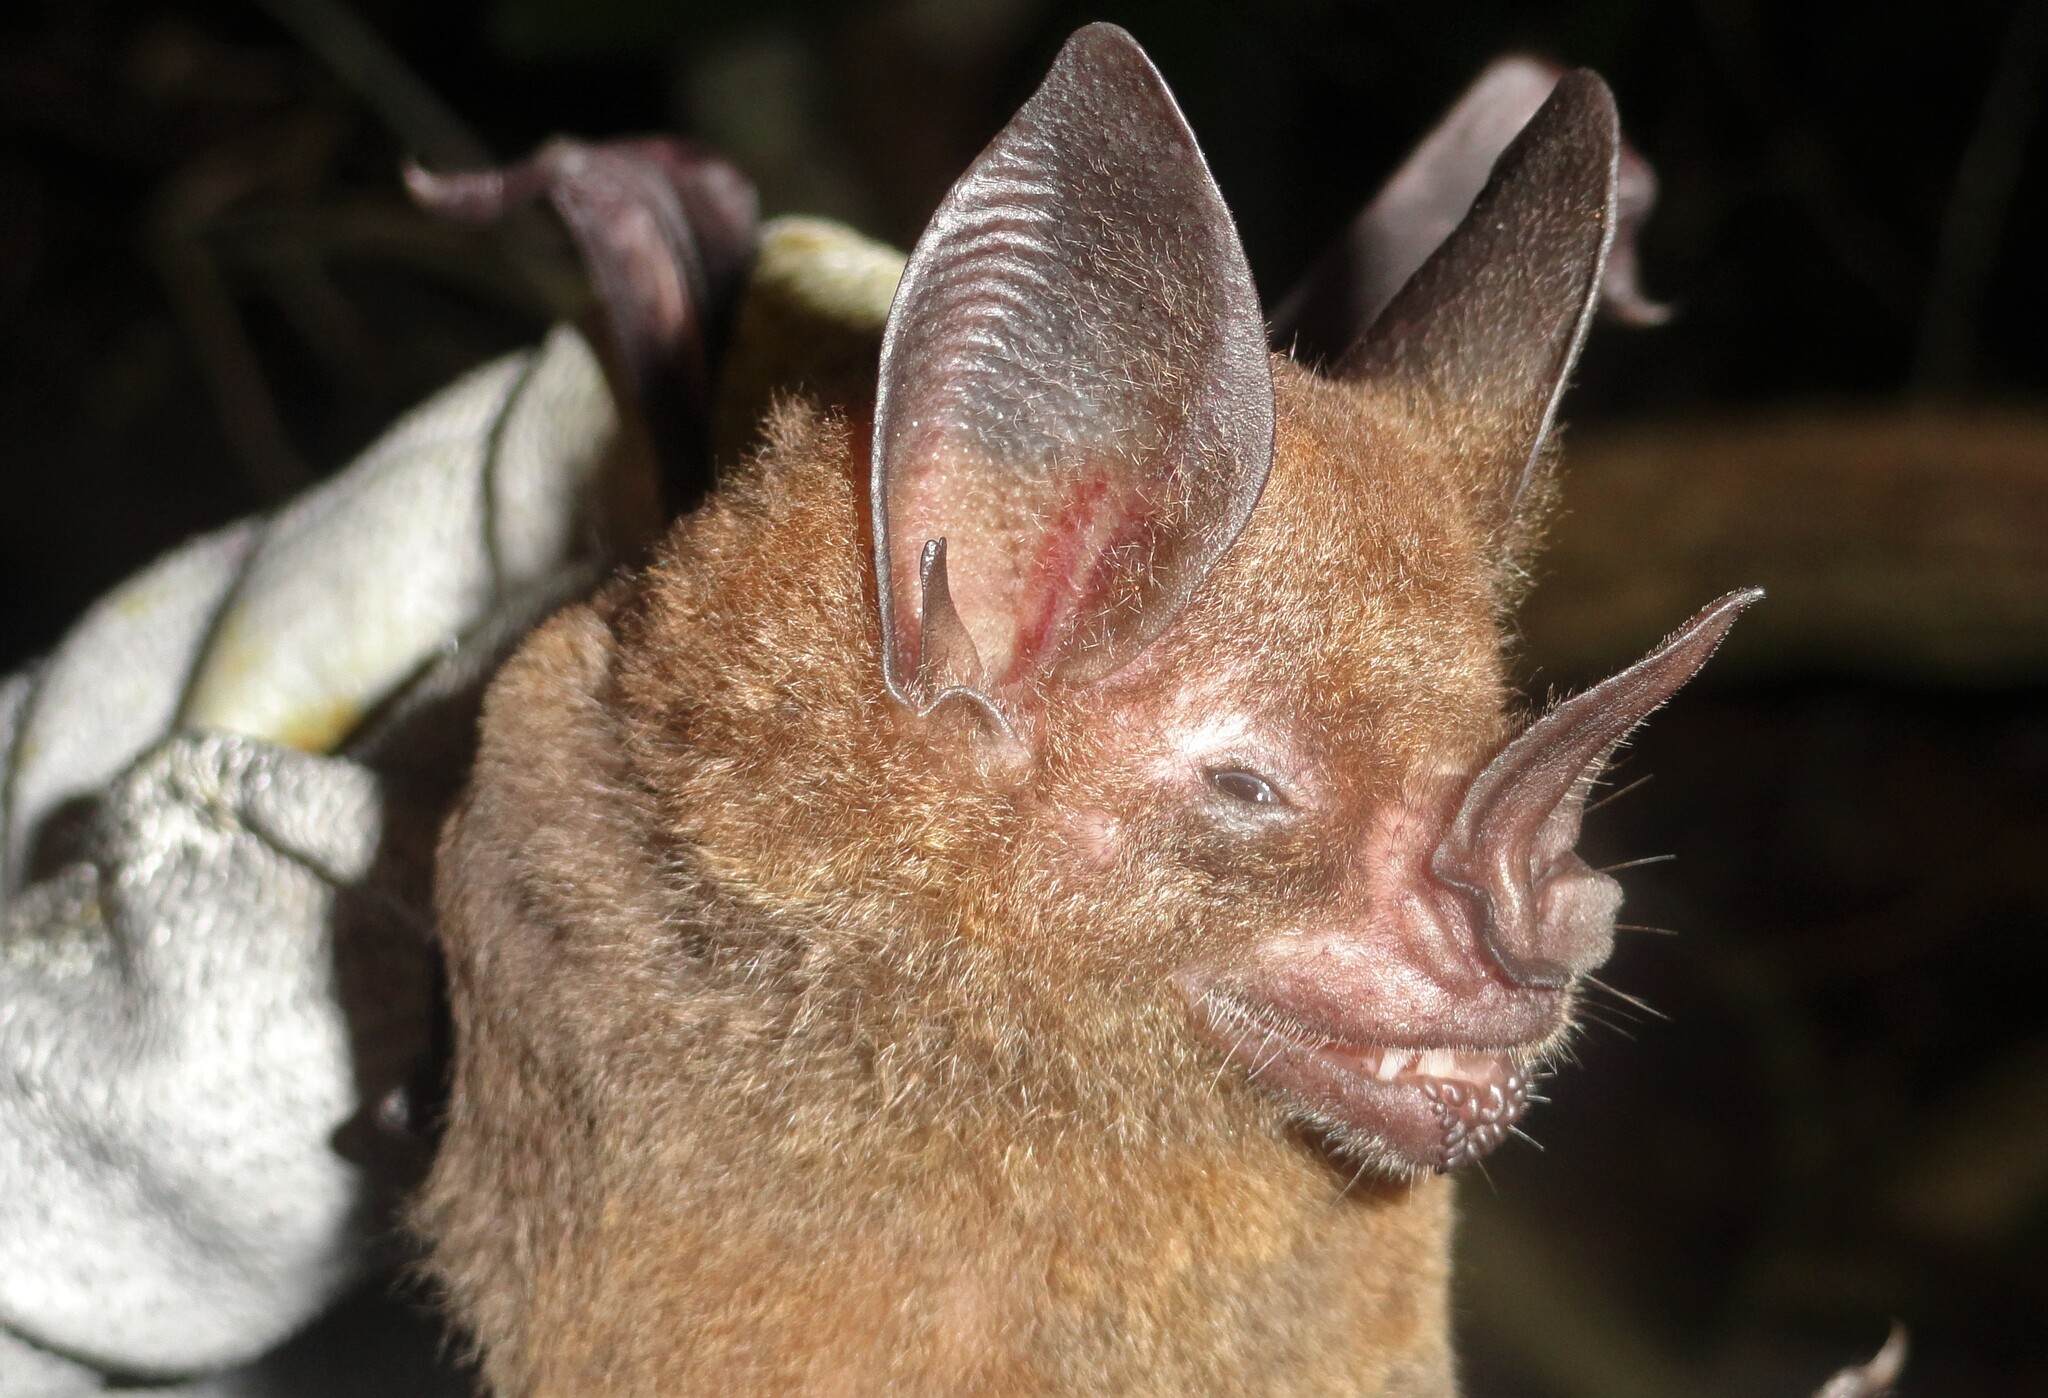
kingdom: Animalia
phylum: Chordata
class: Mammalia
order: Chiroptera
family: Phyllostomidae
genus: Phyllostomus
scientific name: Phyllostomus elongatus
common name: Lesser spear-nosed bat
